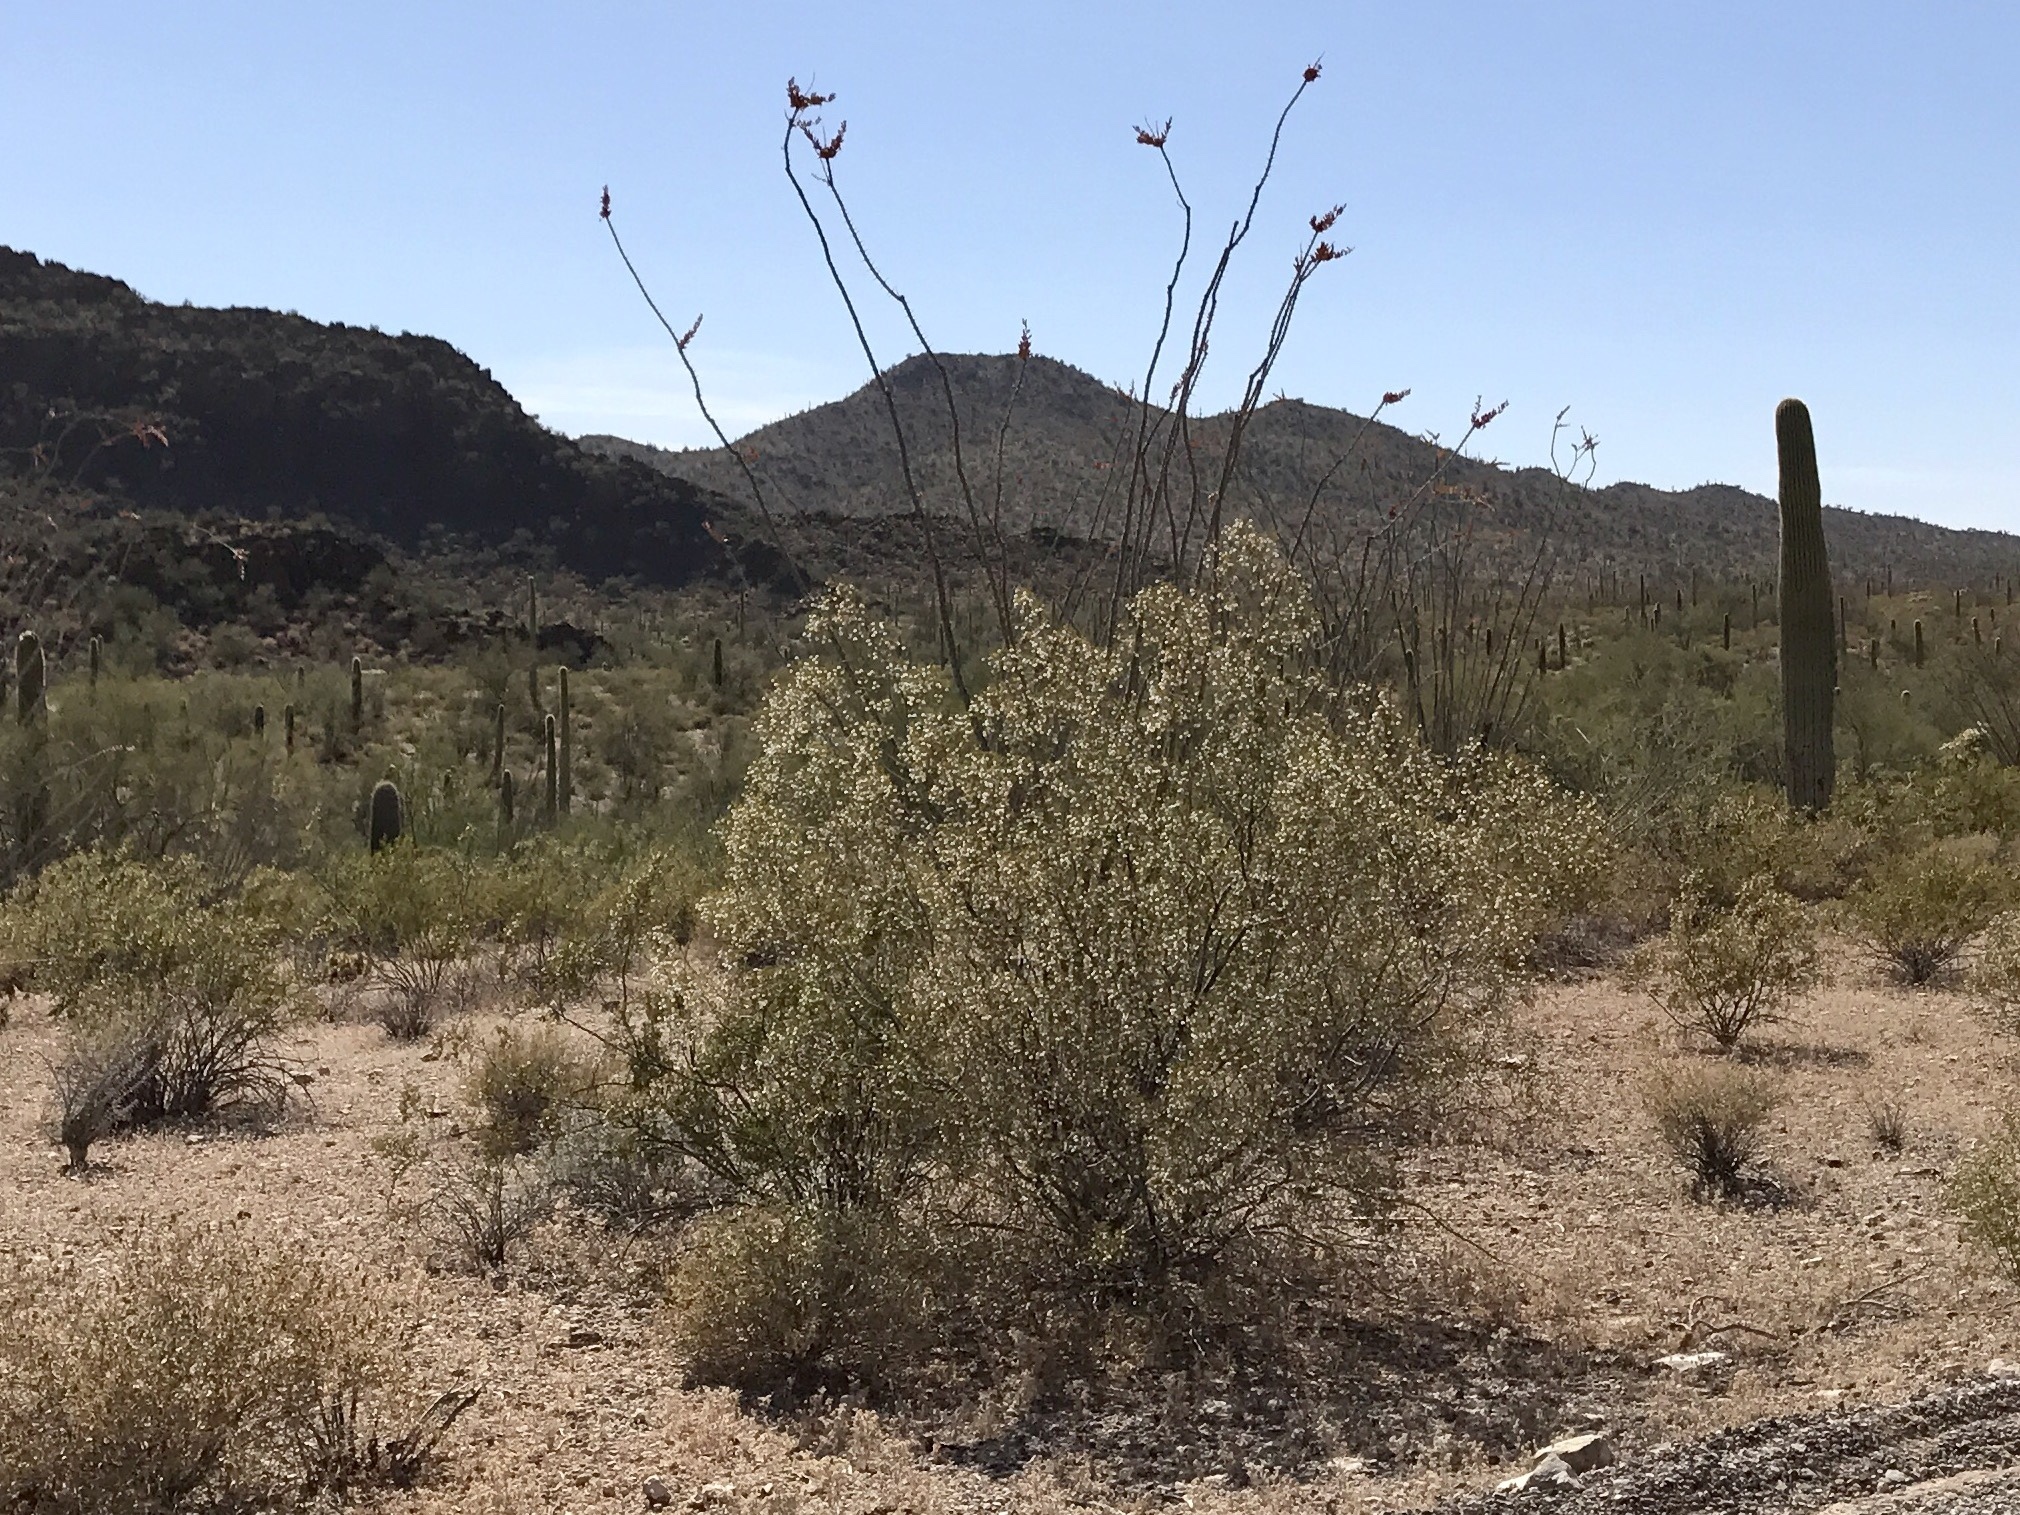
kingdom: Plantae
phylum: Tracheophyta
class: Magnoliopsida
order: Zygophyllales
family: Zygophyllaceae
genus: Larrea
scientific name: Larrea tridentata
